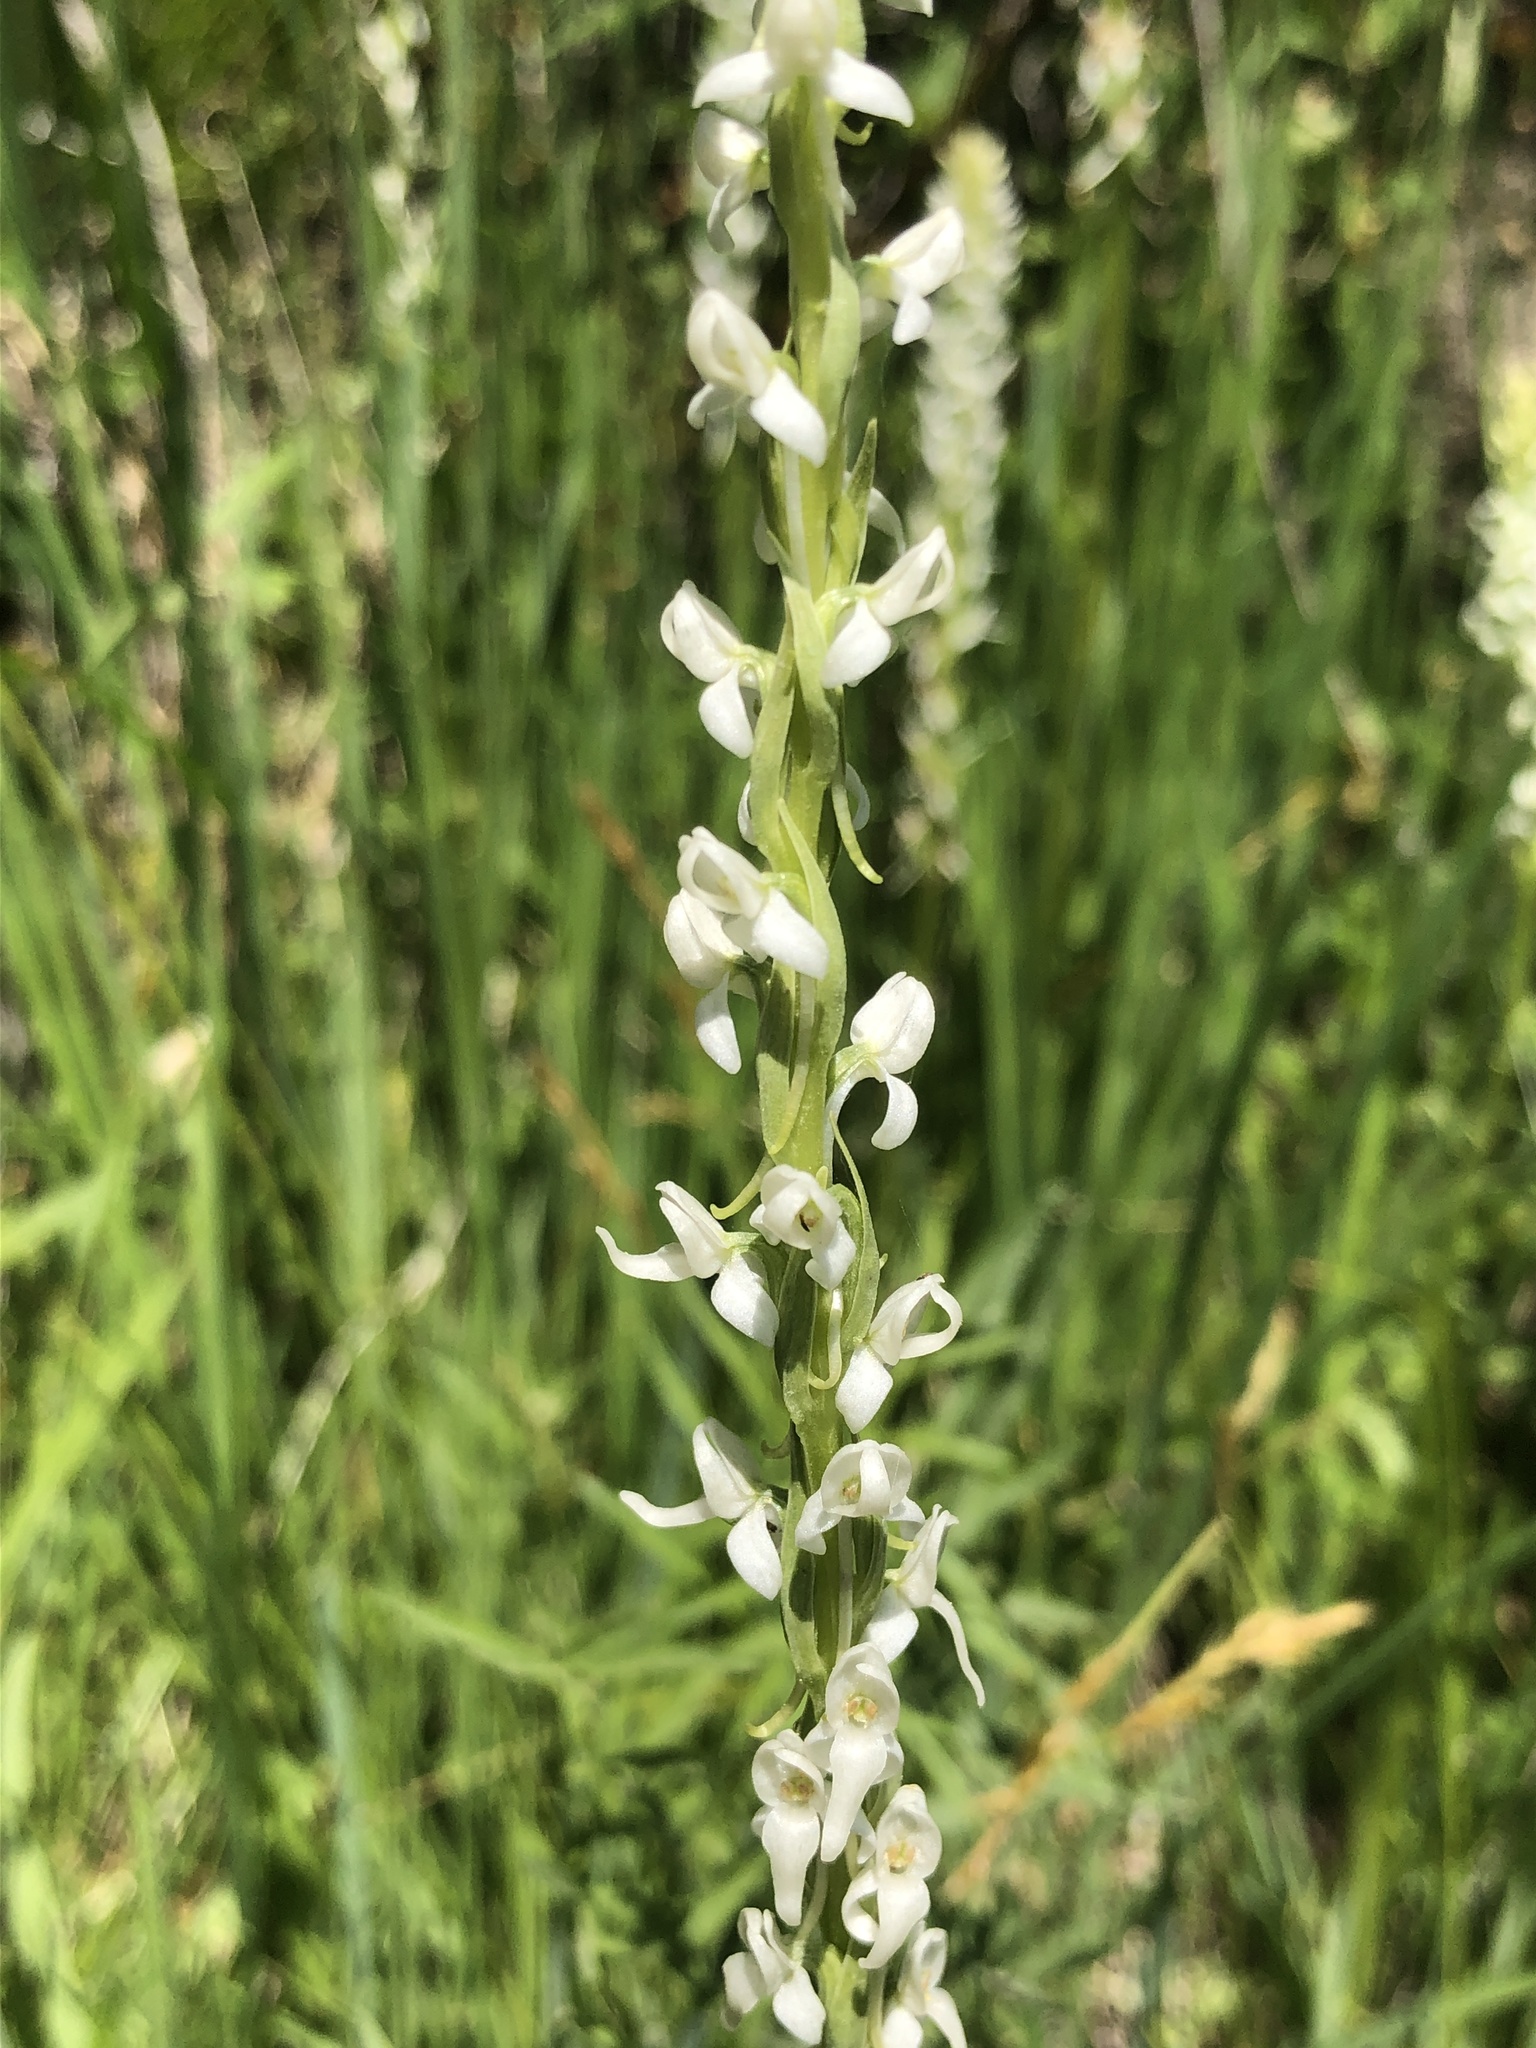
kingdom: Plantae
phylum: Tracheophyta
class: Liliopsida
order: Asparagales
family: Orchidaceae
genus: Platanthera
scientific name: Platanthera dilatata
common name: Bog candles
